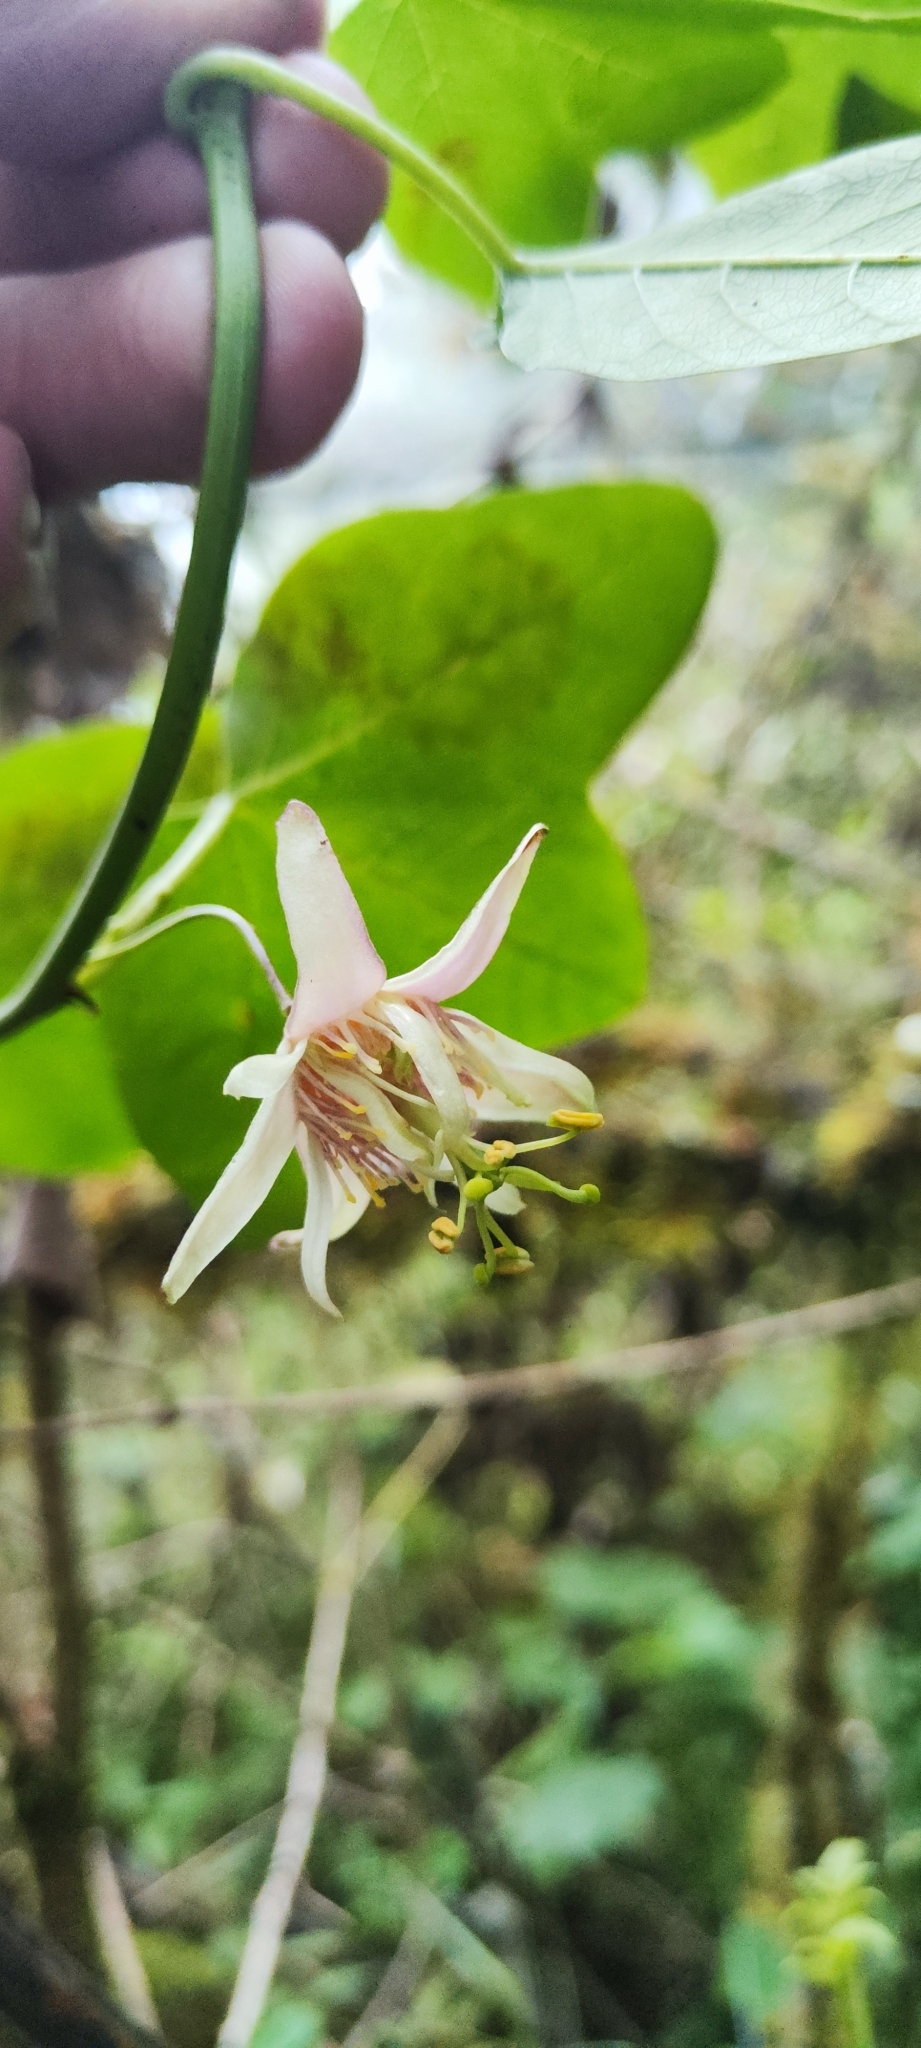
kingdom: Plantae
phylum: Tracheophyta
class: Magnoliopsida
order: Malpighiales
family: Passifloraceae
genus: Passiflora
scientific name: Passiflora sagasteguii
